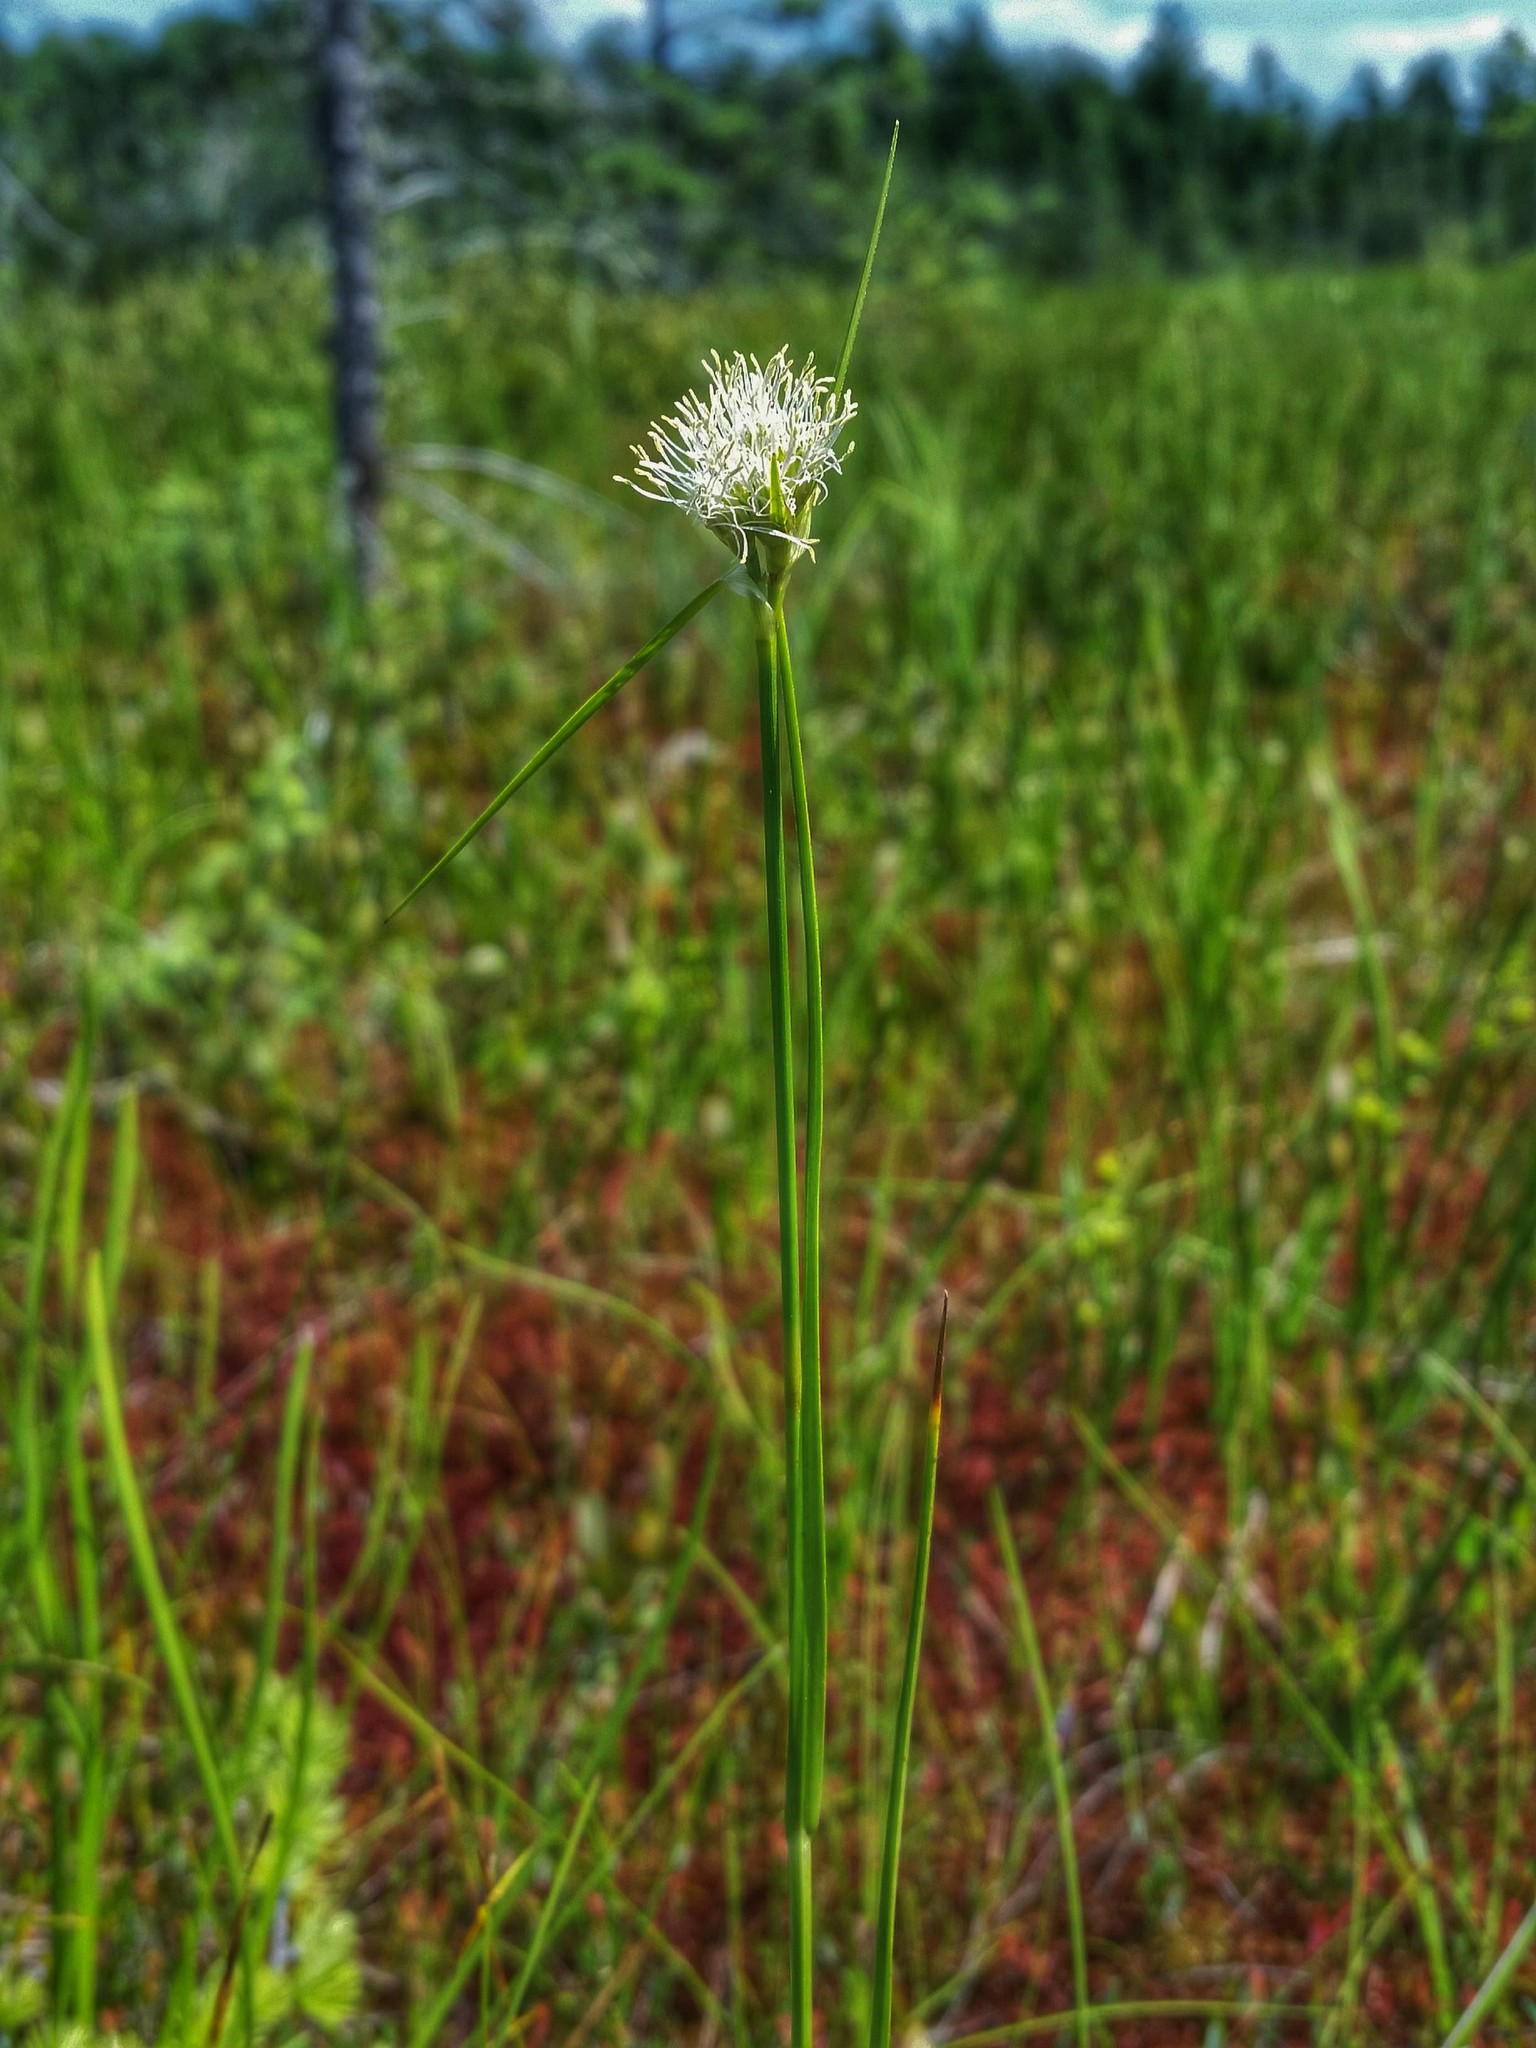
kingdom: Plantae
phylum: Tracheophyta
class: Liliopsida
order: Poales
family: Cyperaceae
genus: Eriophorum
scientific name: Eriophorum virginicum
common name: Tawny cottongrass
